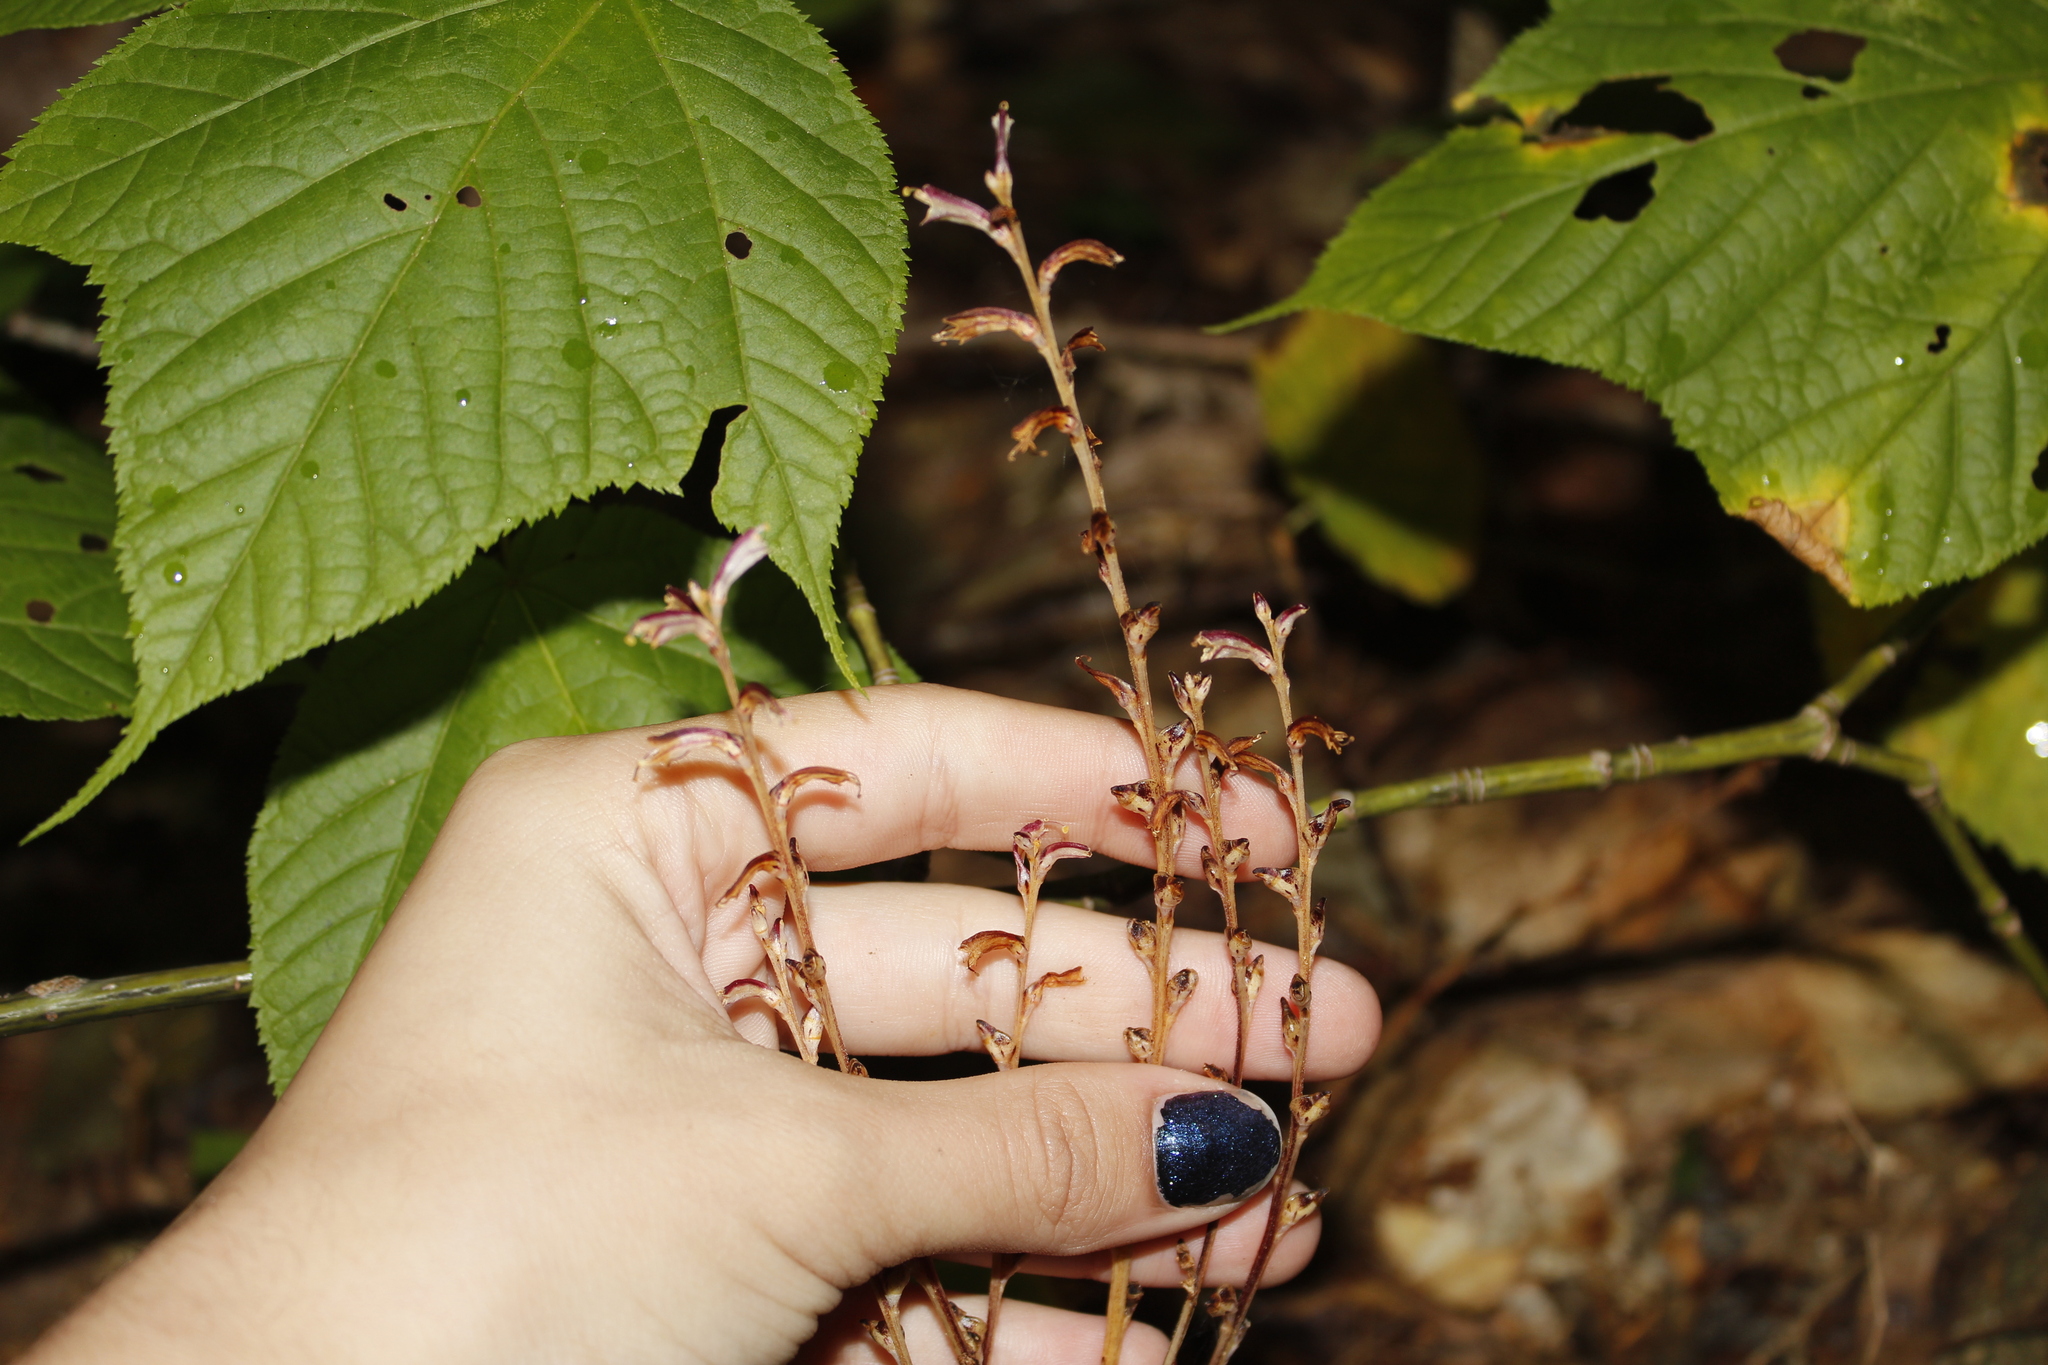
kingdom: Plantae
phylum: Tracheophyta
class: Magnoliopsida
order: Lamiales
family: Orobanchaceae
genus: Epifagus
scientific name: Epifagus virginiana
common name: Beechdrops
